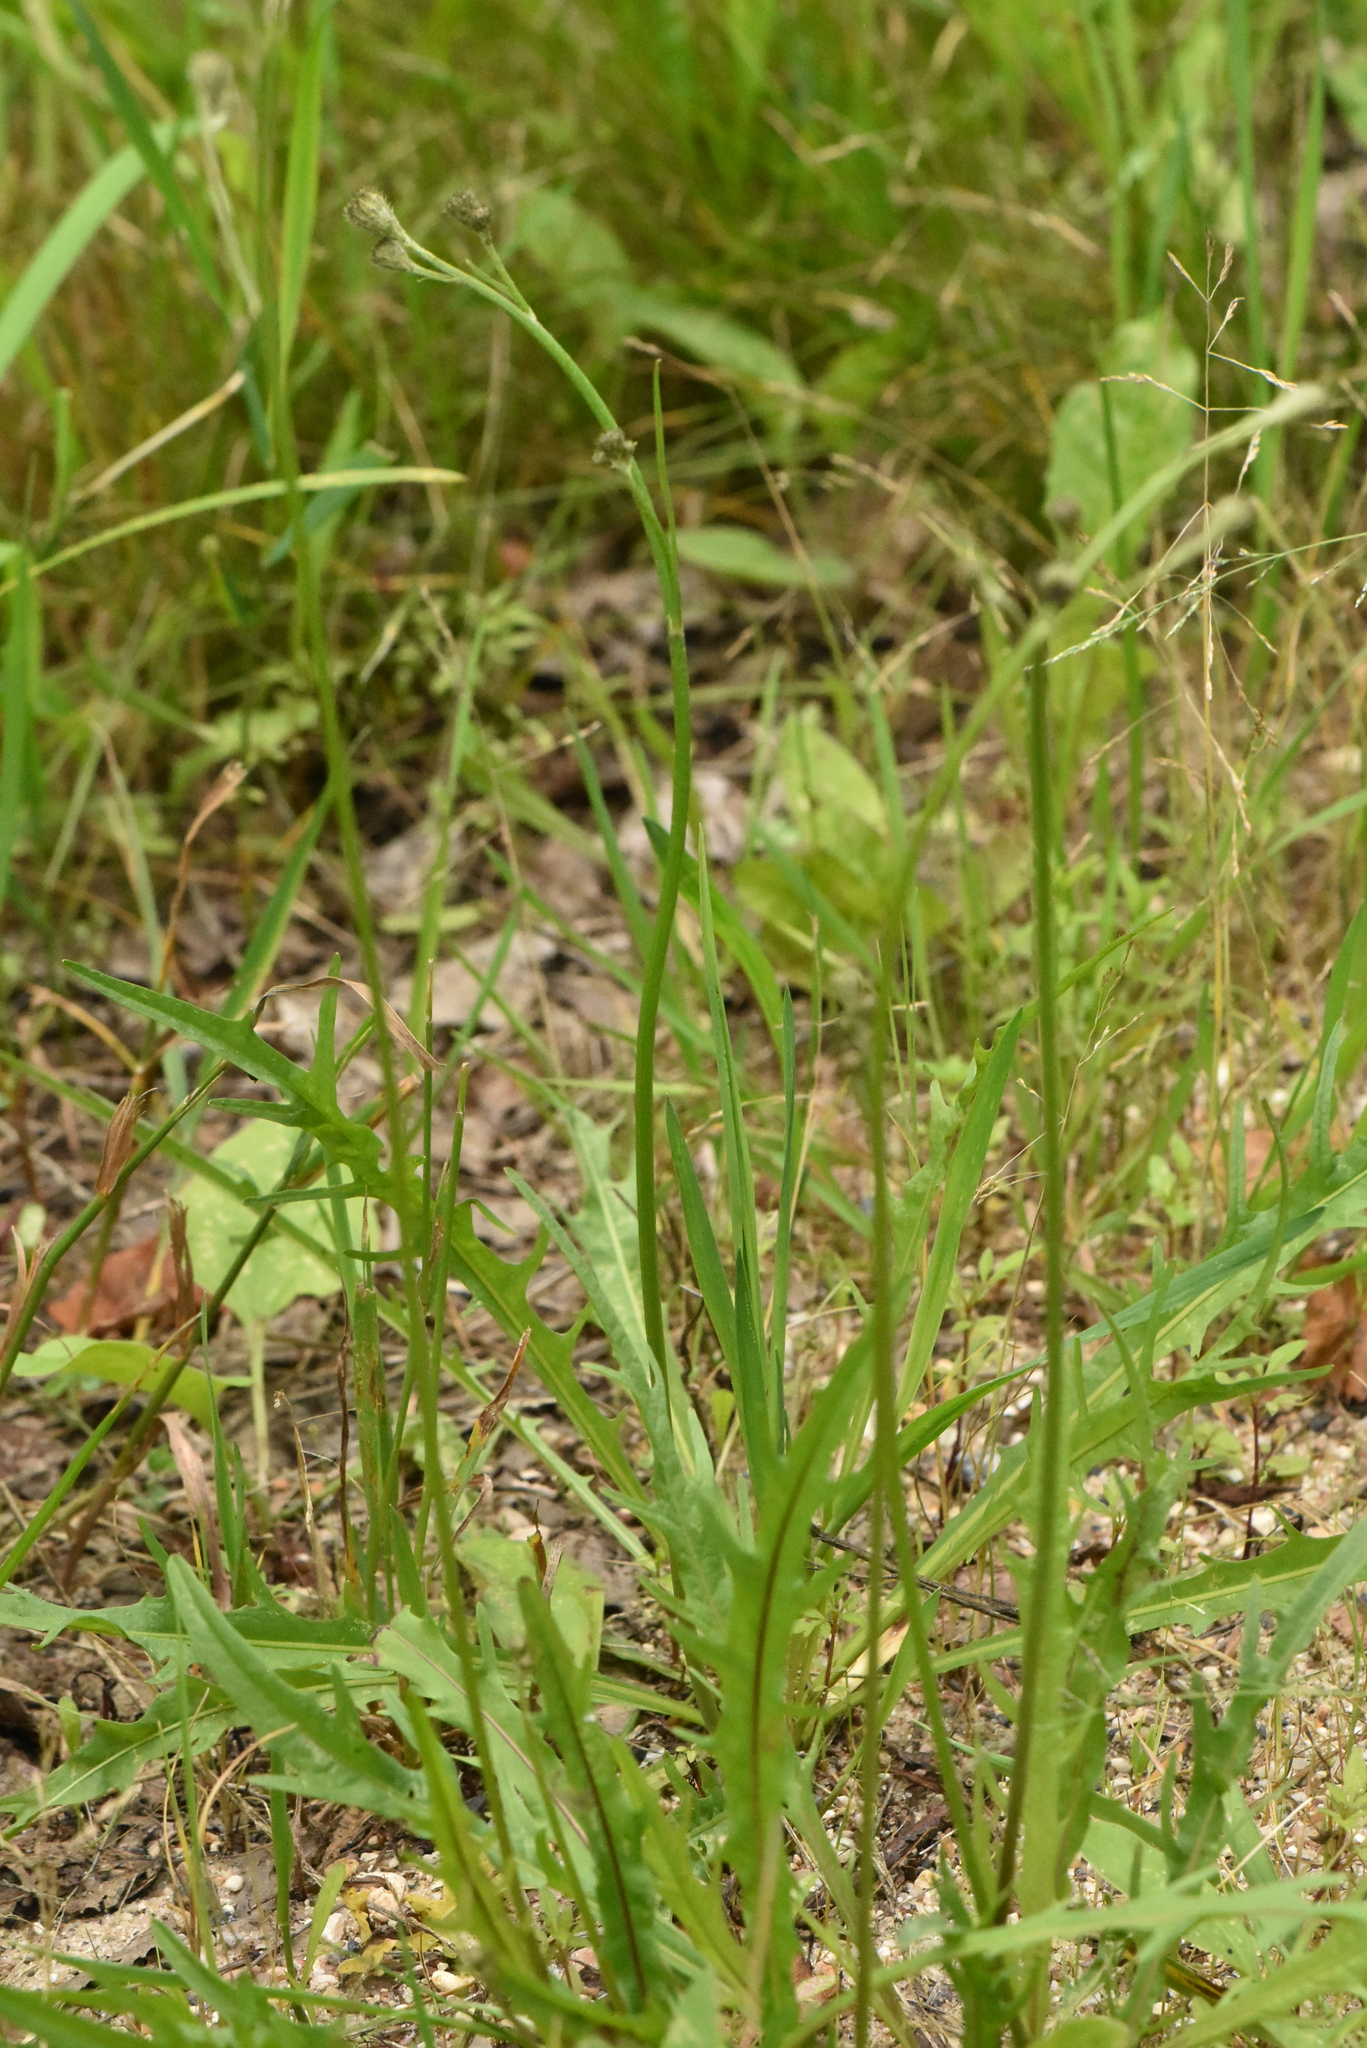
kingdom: Plantae
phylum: Tracheophyta
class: Magnoliopsida
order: Asterales
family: Asteraceae
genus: Scorzoneroides
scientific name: Scorzoneroides autumnalis
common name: Autumn hawkbit
